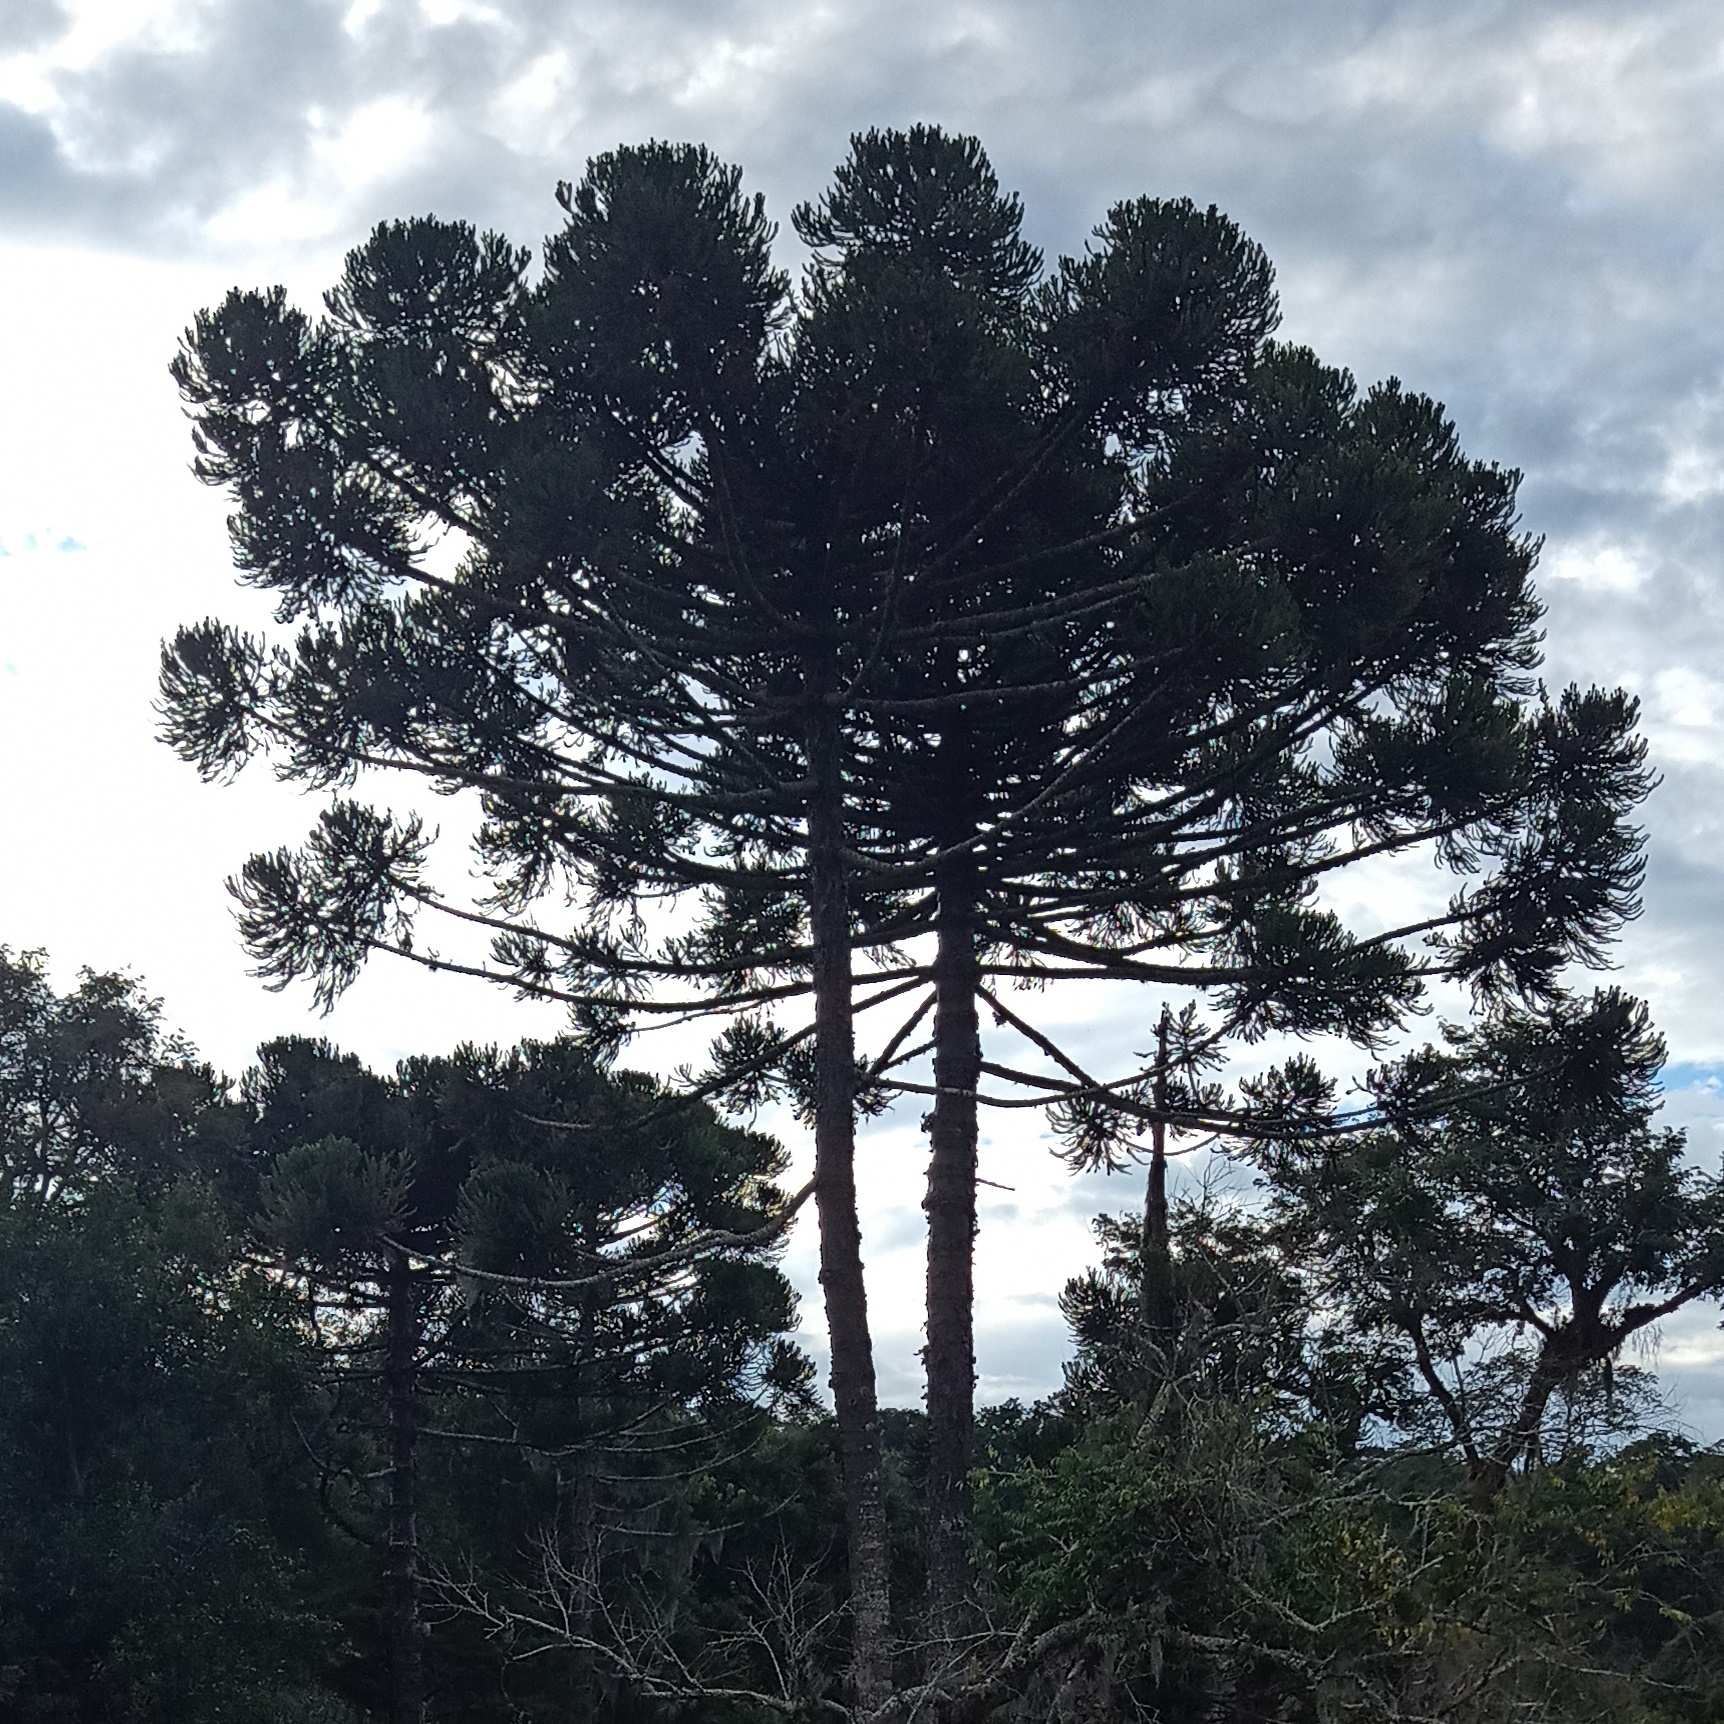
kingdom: Plantae
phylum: Tracheophyta
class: Pinopsida
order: Pinales
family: Araucariaceae
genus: Araucaria
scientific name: Araucaria angustifolia
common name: Candelabra tree
